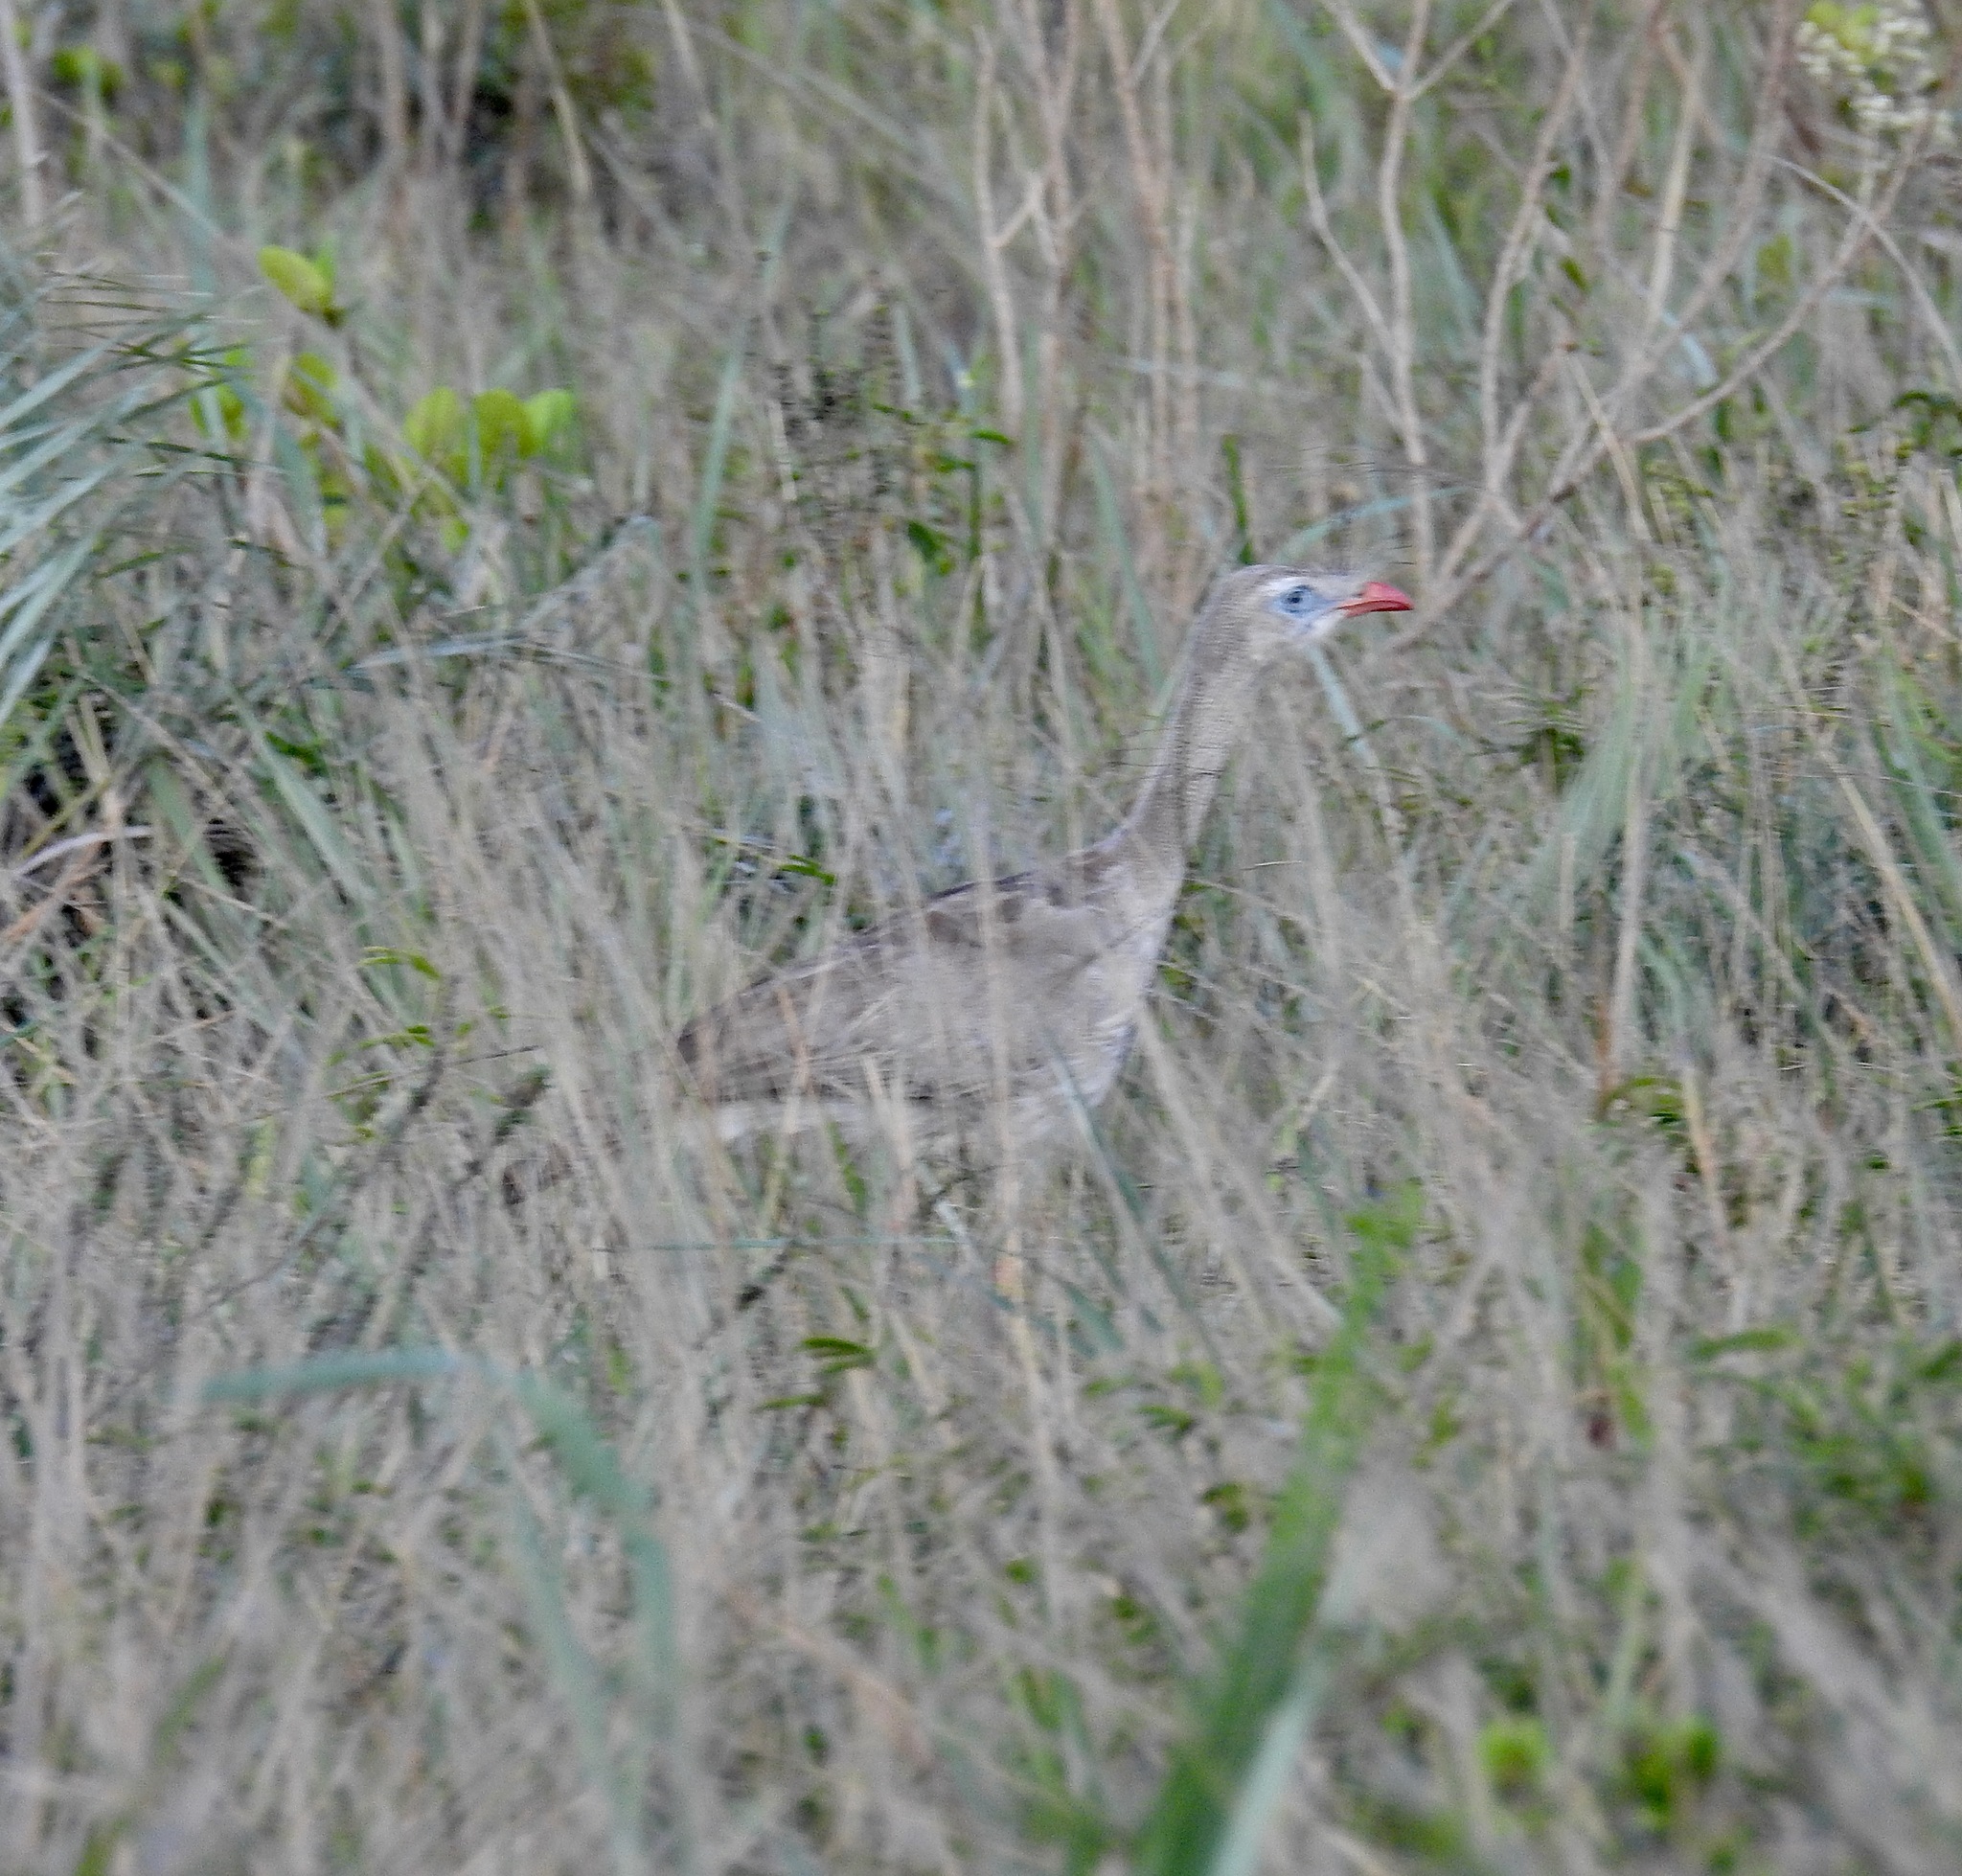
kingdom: Animalia
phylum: Chordata
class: Aves
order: Cariamiformes
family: Cariamidae
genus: Cariama
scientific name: Cariama cristata
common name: Red-legged seriema
